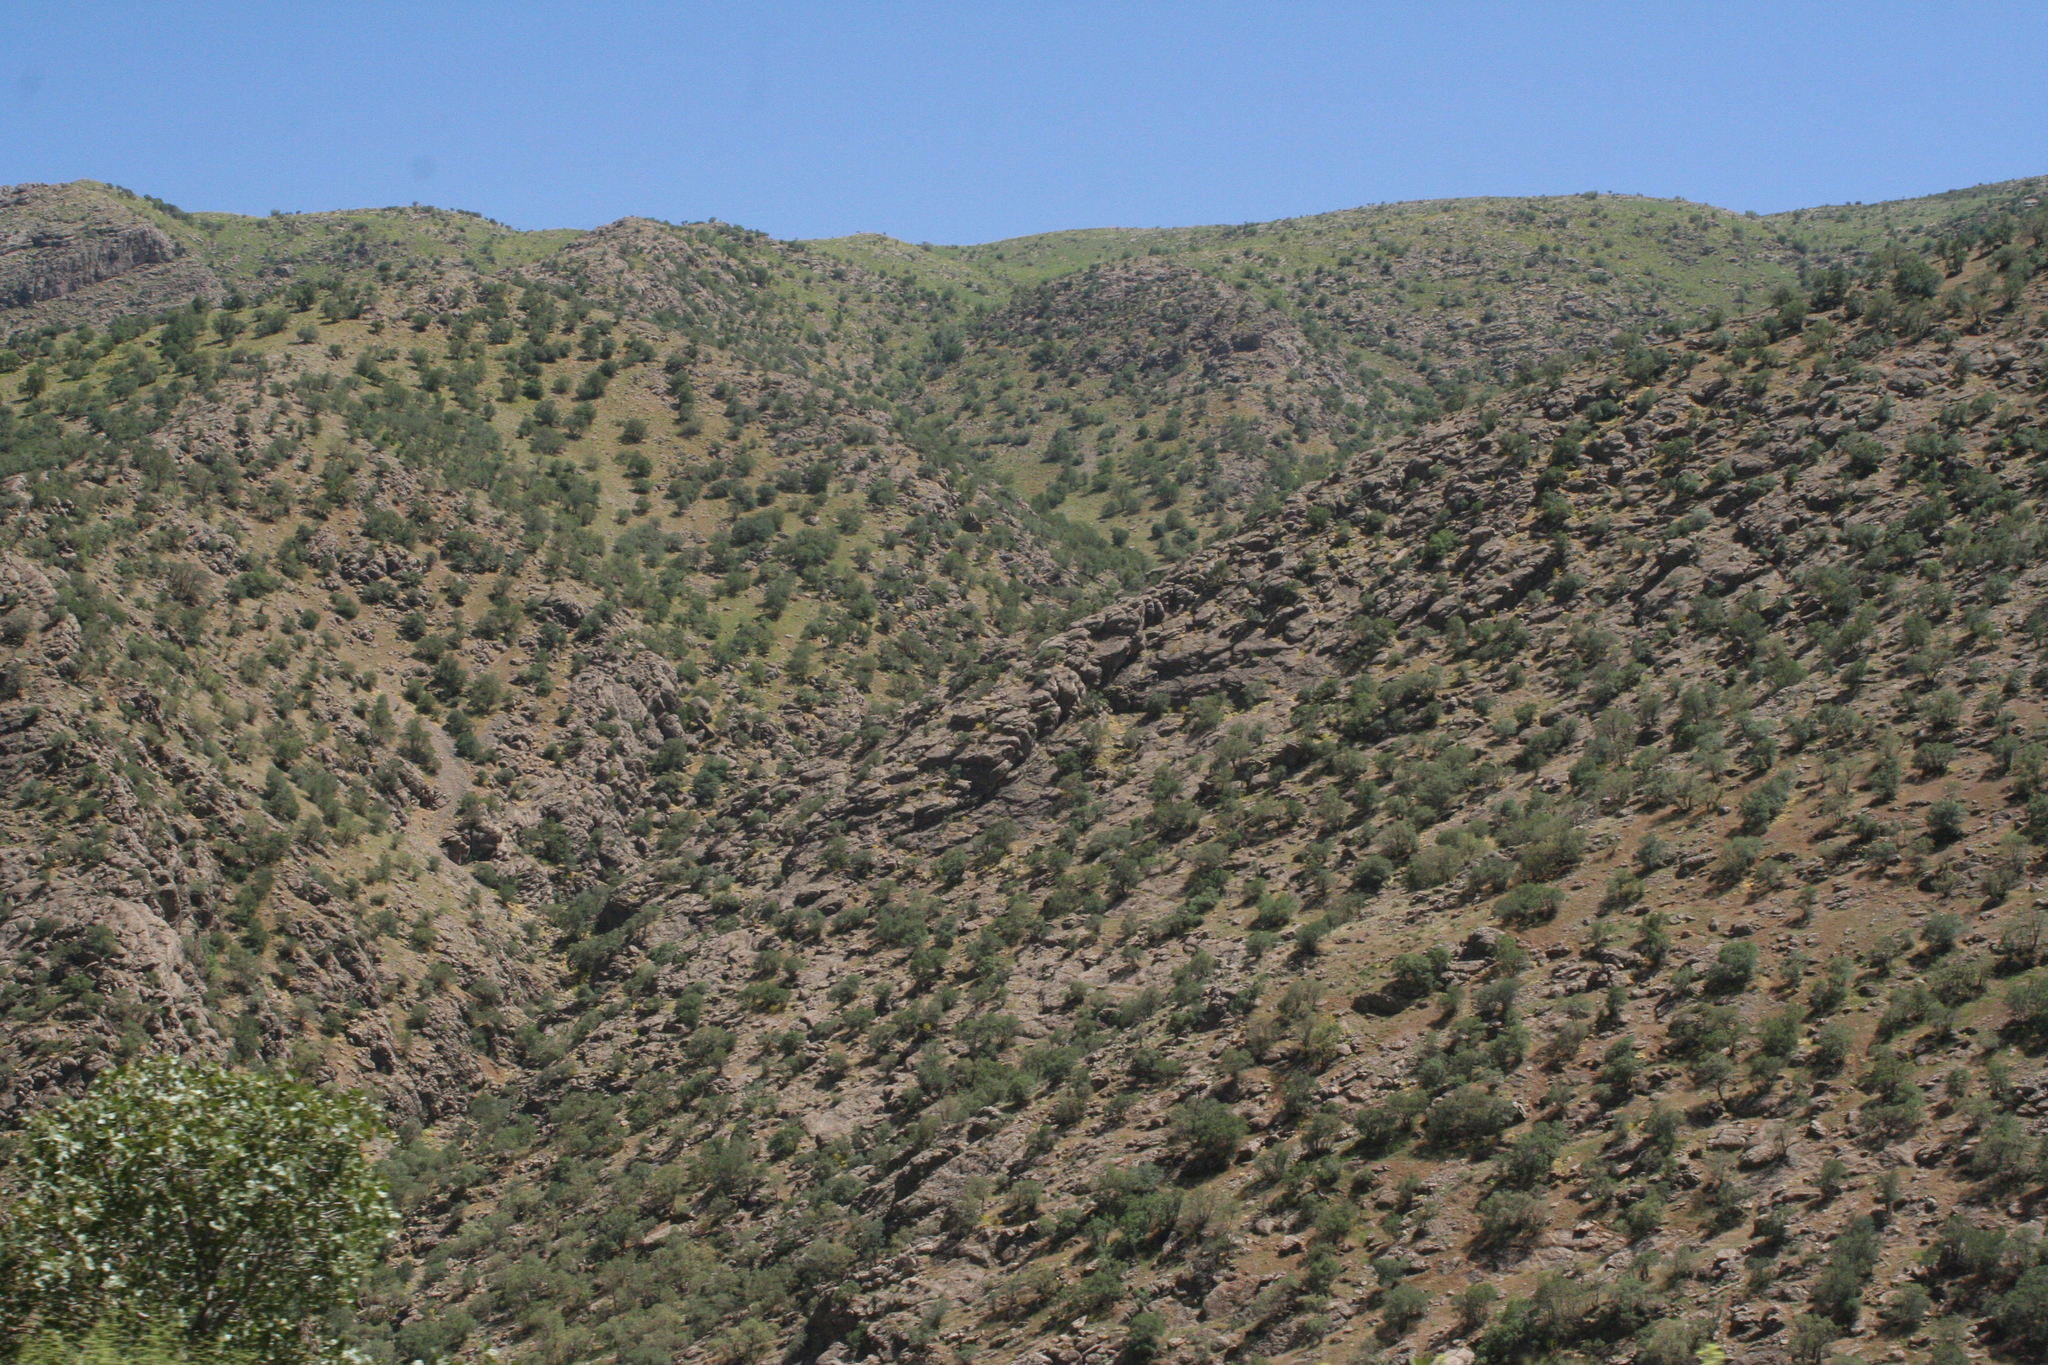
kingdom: Plantae
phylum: Tracheophyta
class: Magnoliopsida
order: Fagales
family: Fagaceae
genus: Quercus
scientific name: Quercus brantii
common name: Brant oak
